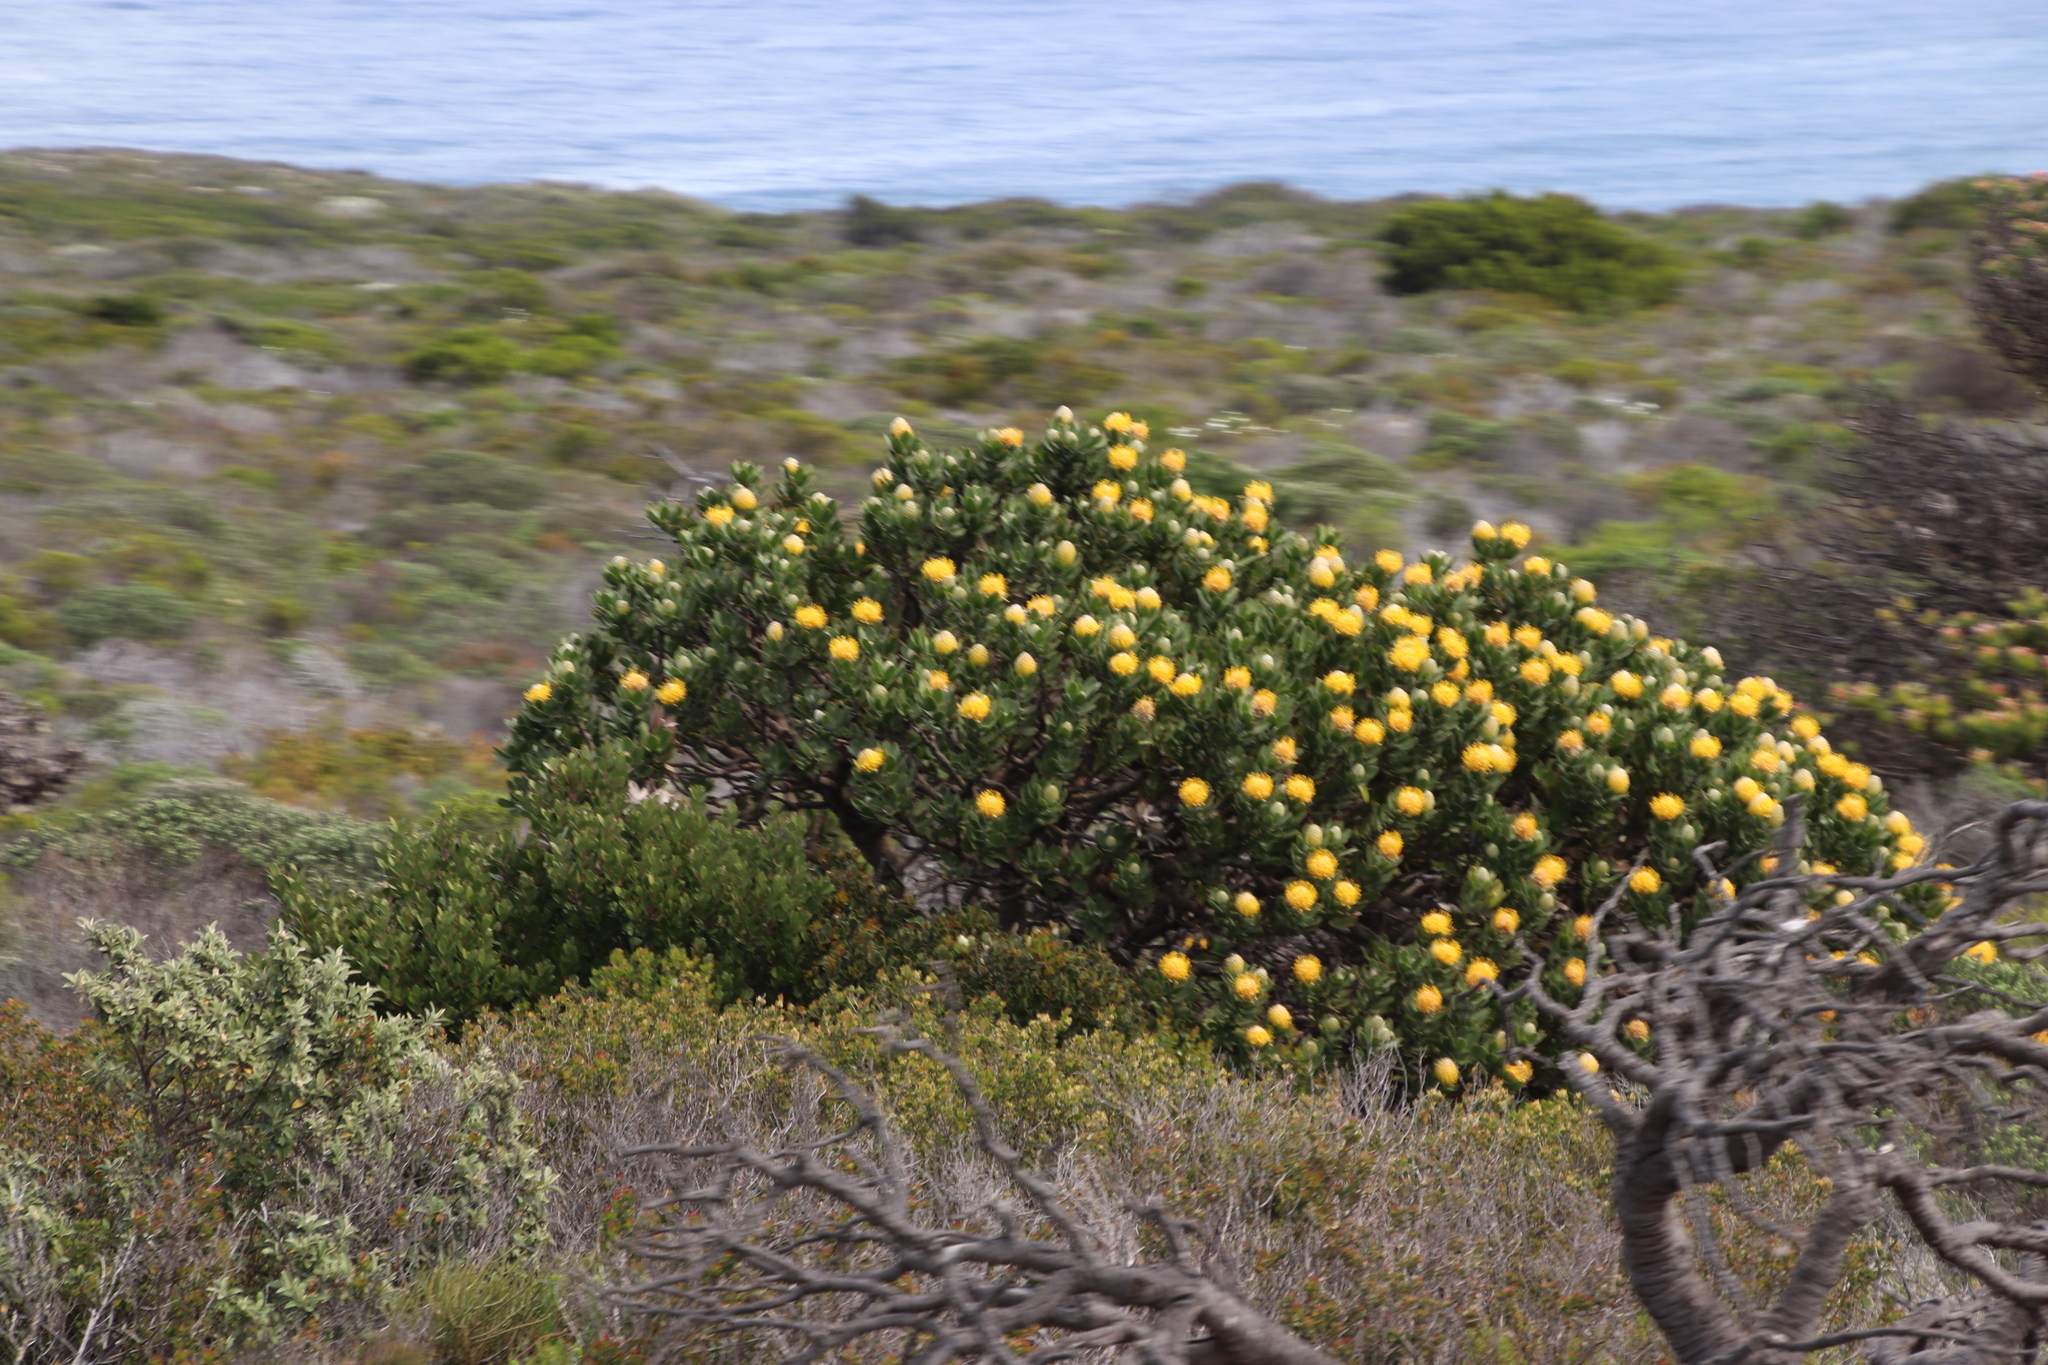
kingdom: Plantae
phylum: Tracheophyta
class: Magnoliopsida
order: Proteales
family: Proteaceae
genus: Leucospermum
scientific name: Leucospermum conocarpodendron
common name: Tree pincushion
